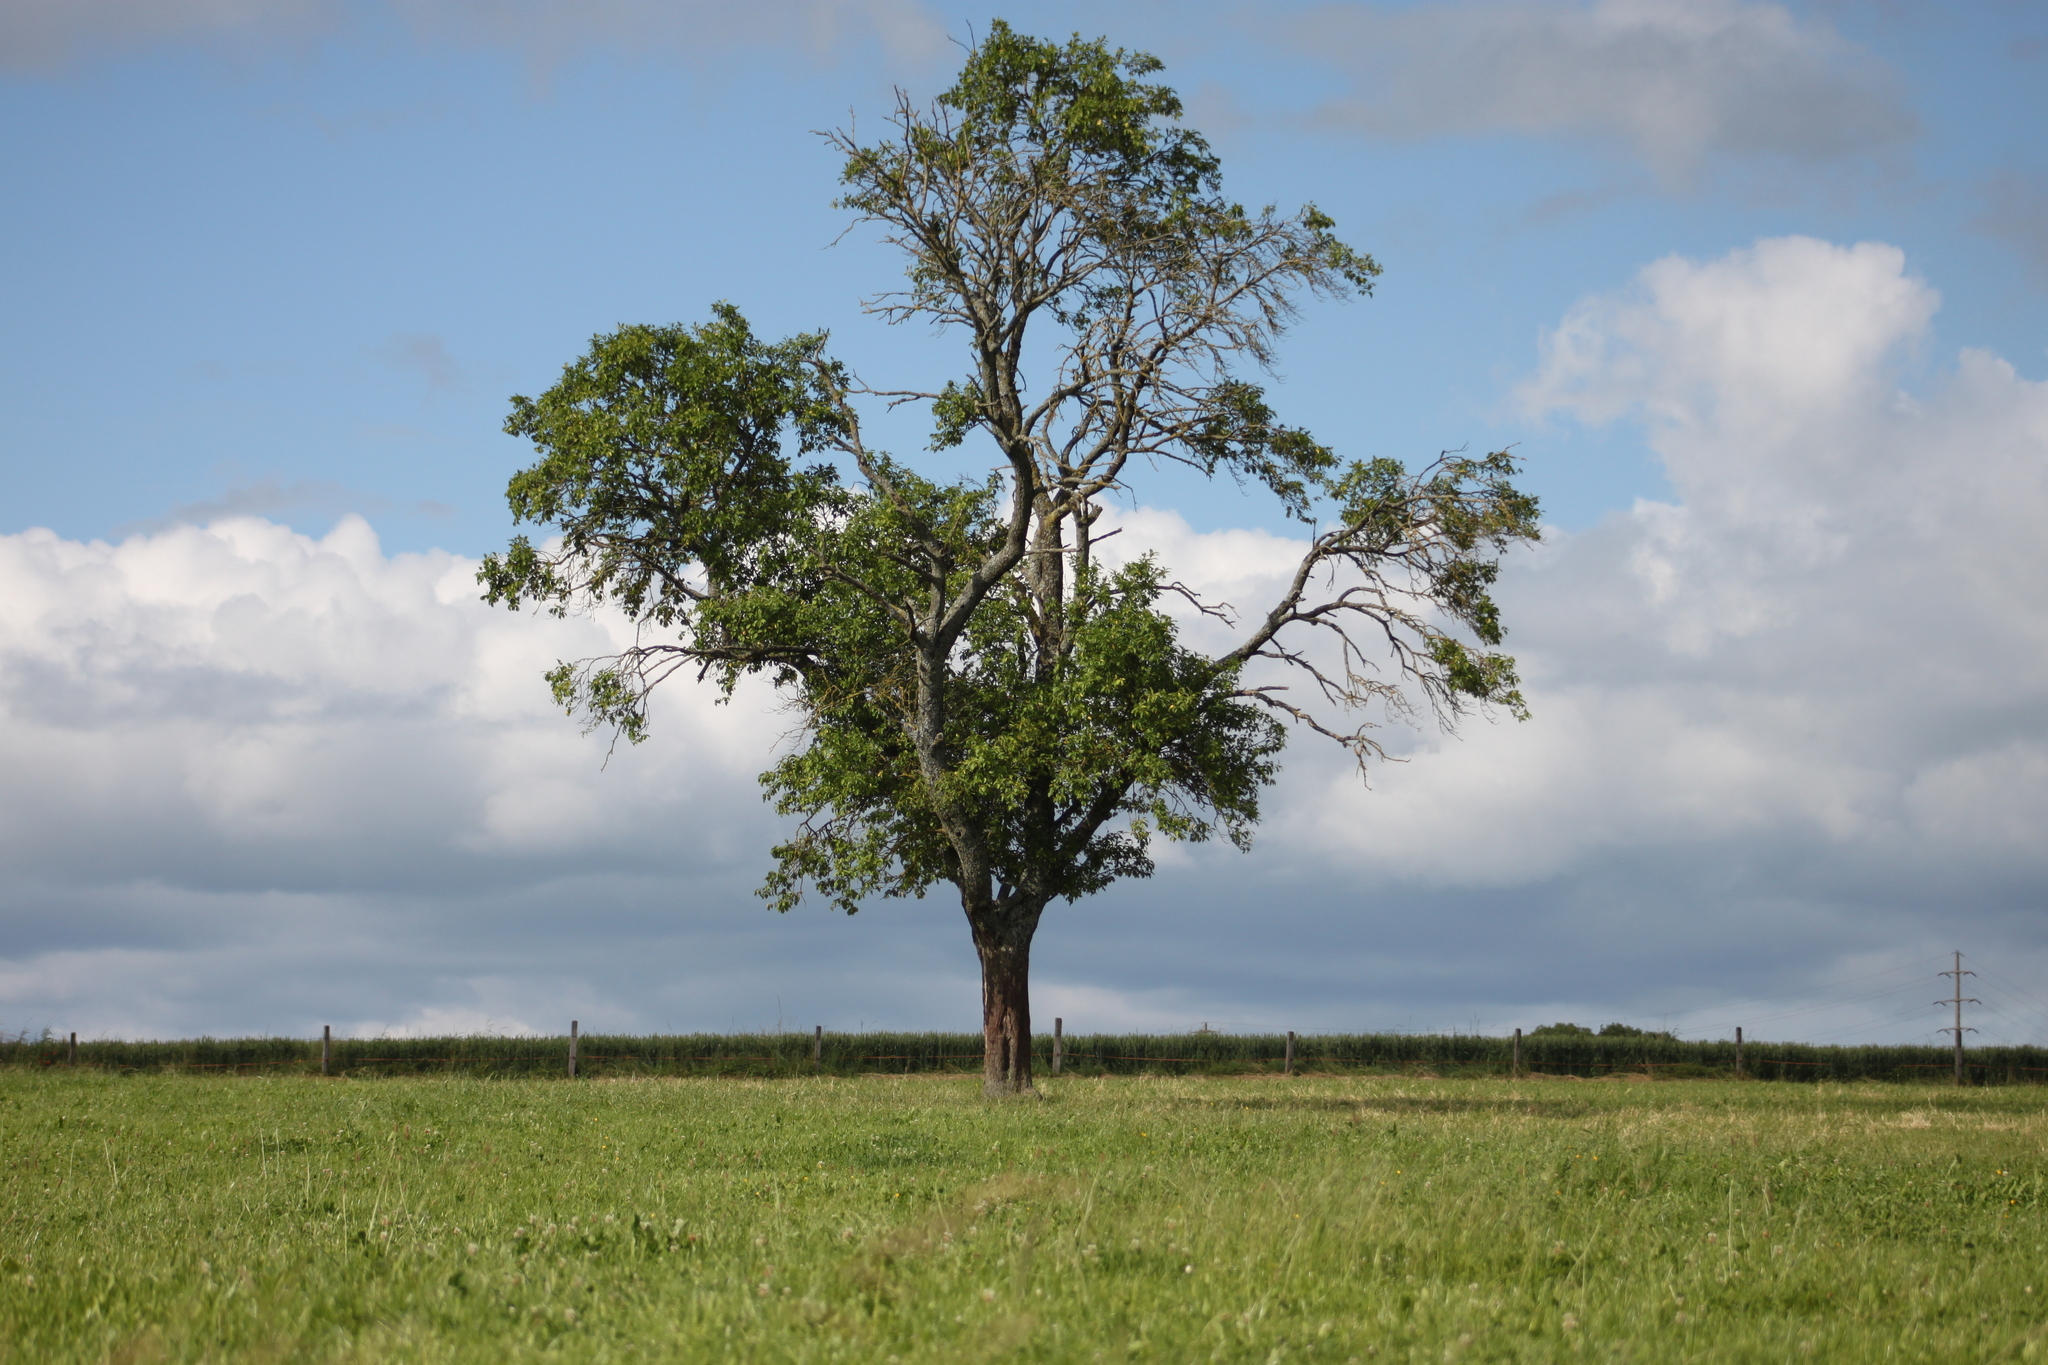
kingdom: Plantae
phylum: Tracheophyta
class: Magnoliopsida
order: Fagales
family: Juglandaceae
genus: Juglans
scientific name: Juglans regia
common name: Walnut
